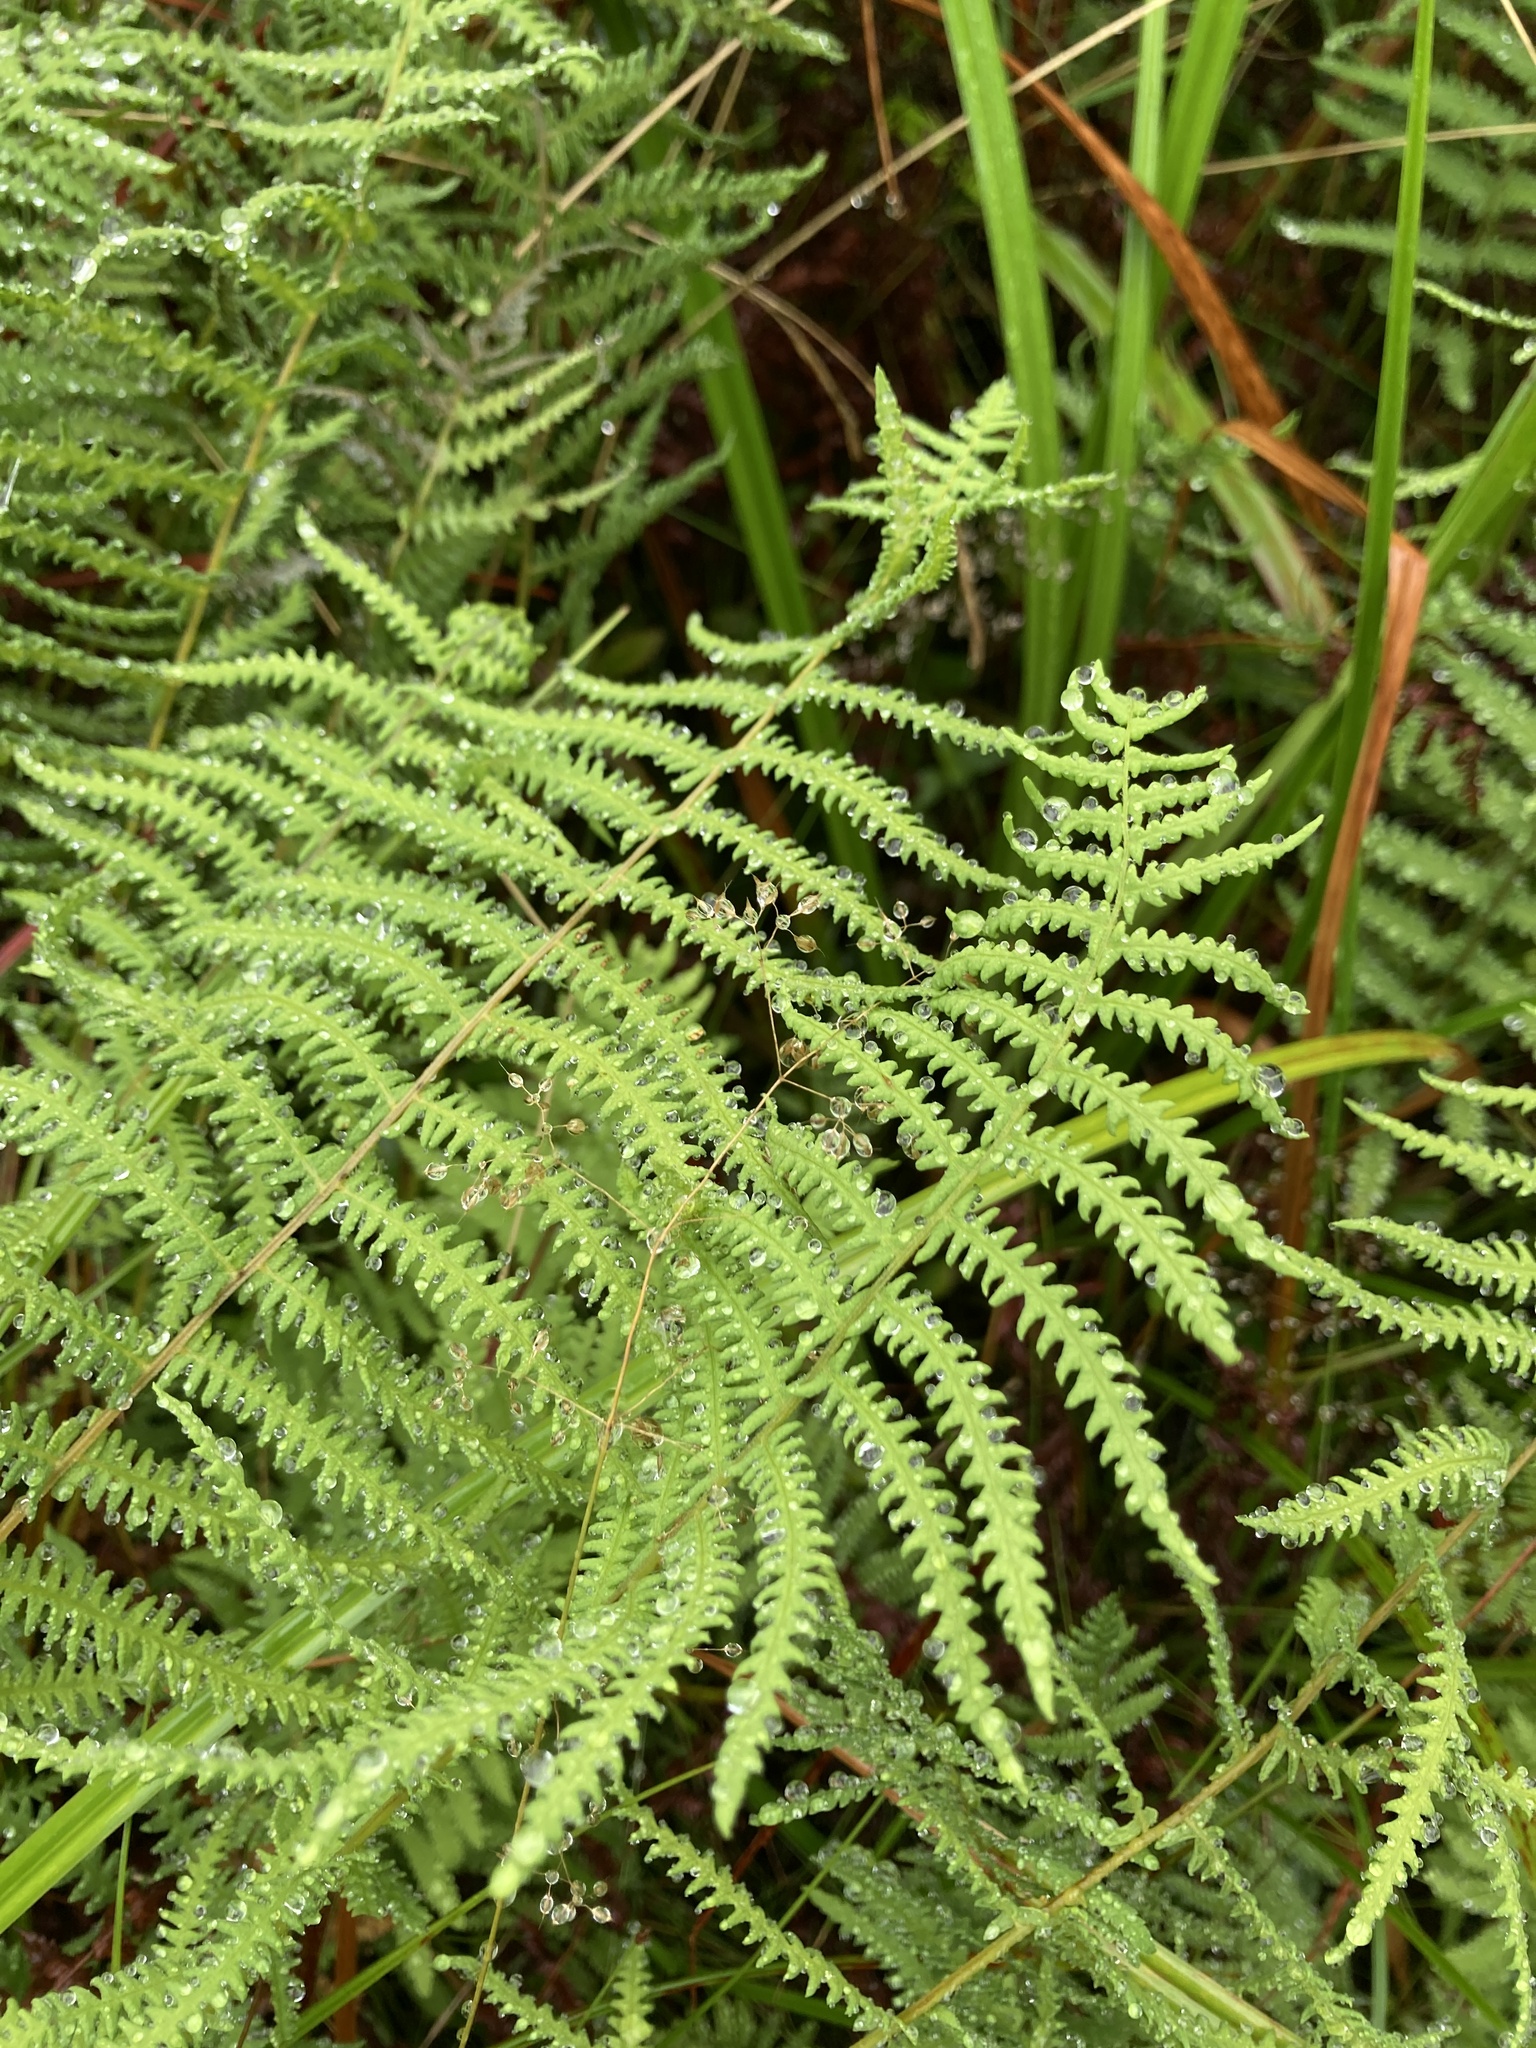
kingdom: Plantae
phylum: Tracheophyta
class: Polypodiopsida
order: Polypodiales
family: Thelypteridaceae
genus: Thelypteris
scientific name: Thelypteris palustris
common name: Marsh fern
